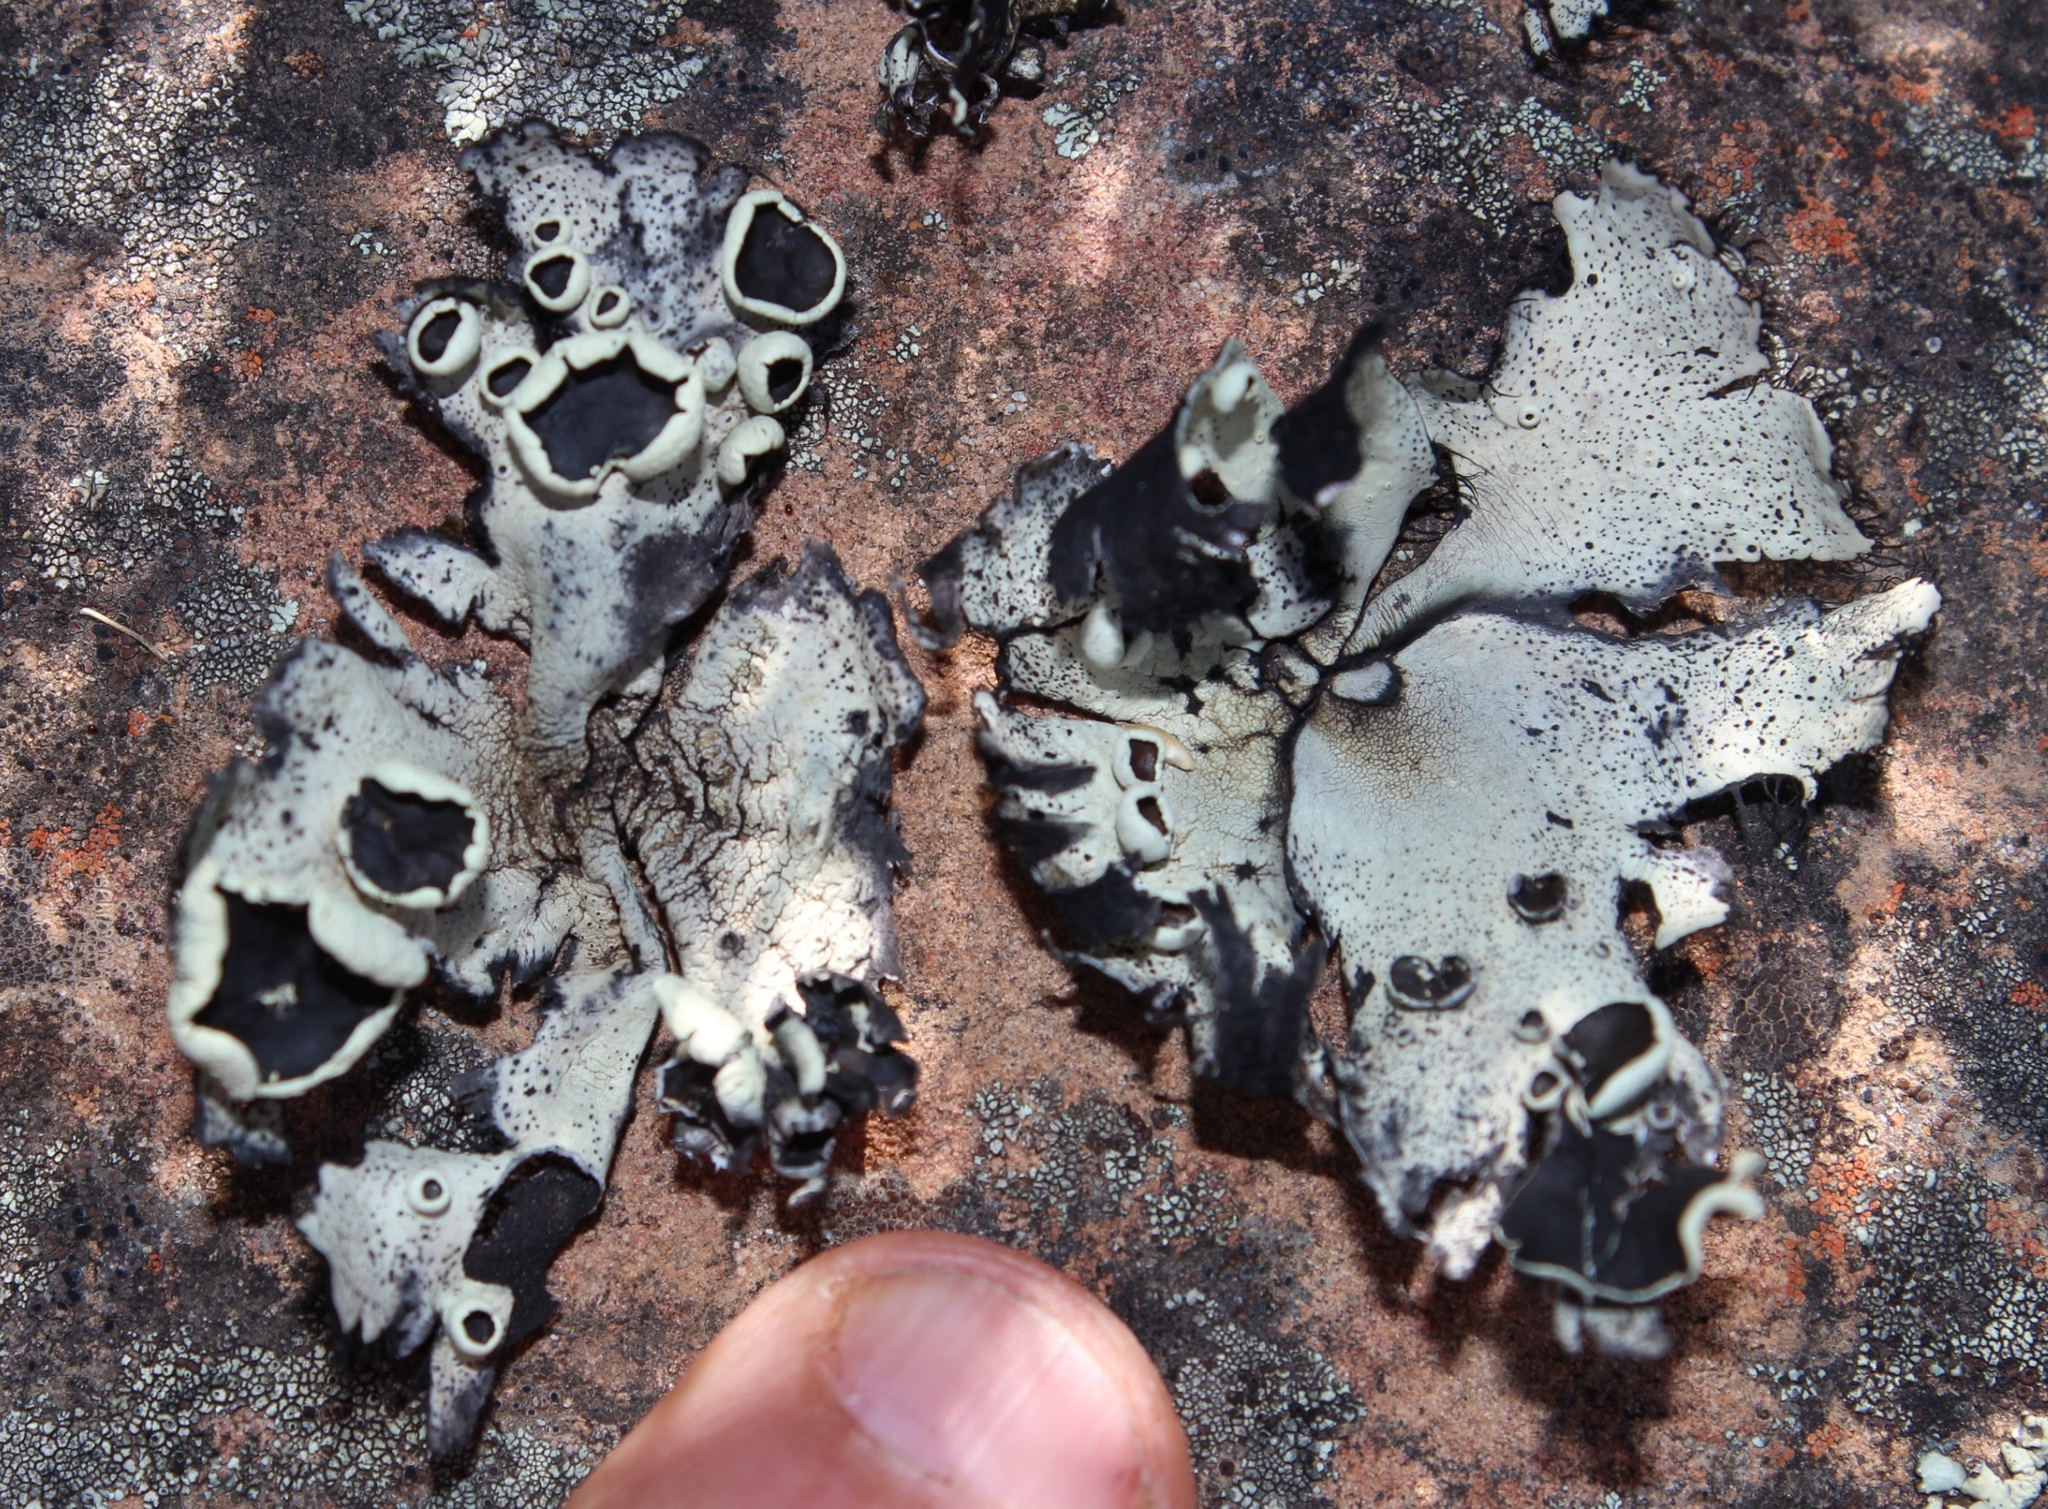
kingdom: Fungi
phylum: Ascomycota
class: Lecanoromycetes
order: Lecanorales
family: Parmeliaceae
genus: Xanthoparmelia
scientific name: Xanthoparmelia hottentotta
